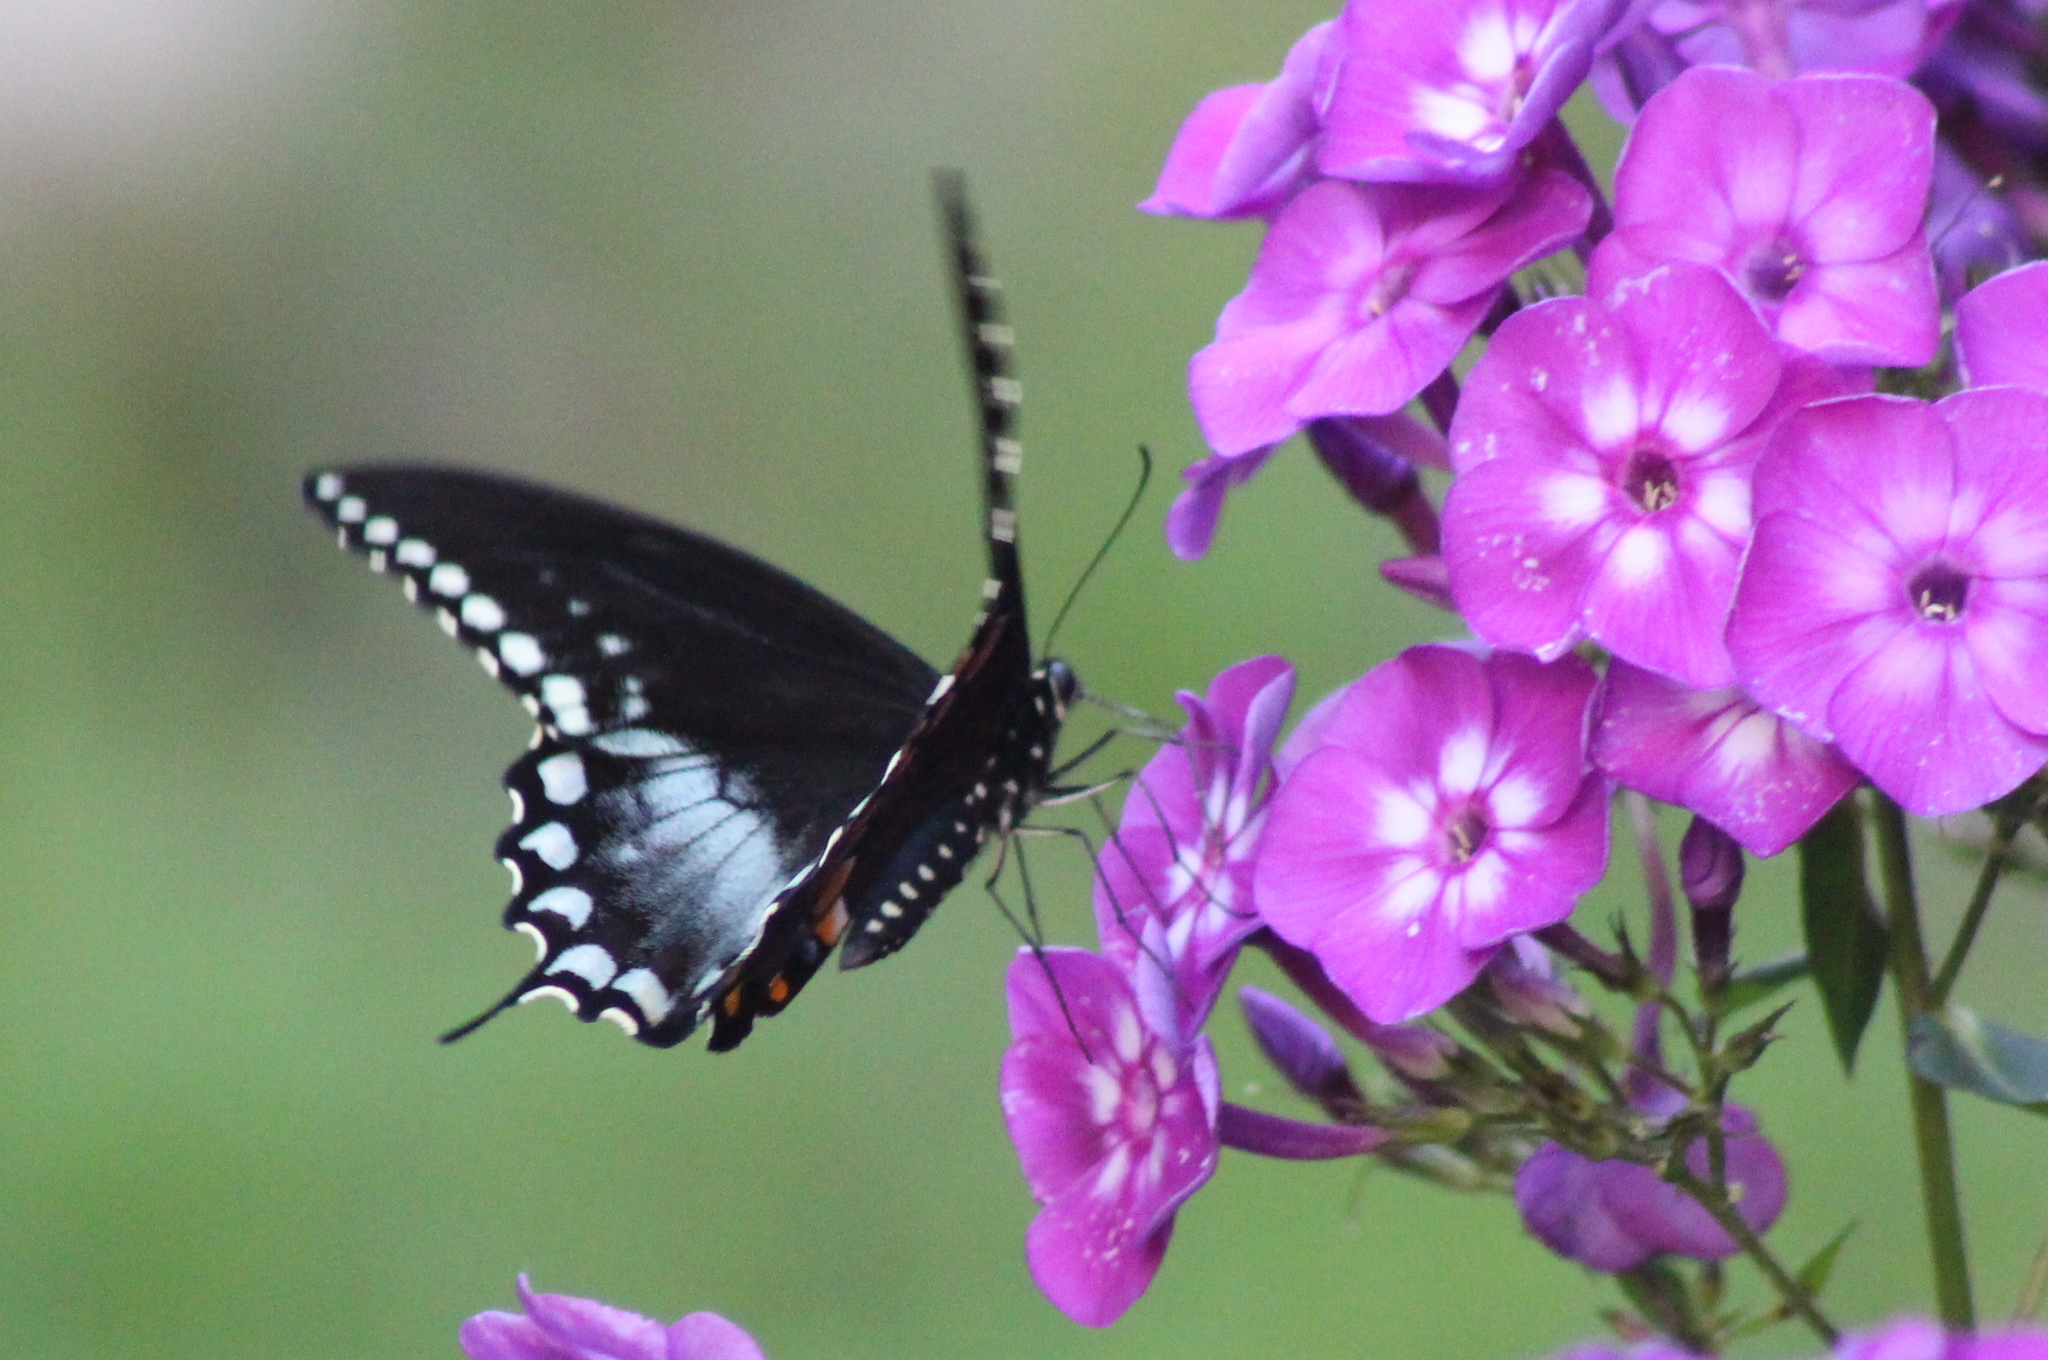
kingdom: Animalia
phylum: Arthropoda
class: Insecta
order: Lepidoptera
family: Papilionidae
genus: Papilio
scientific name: Papilio troilus
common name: Spicebush swallowtail
